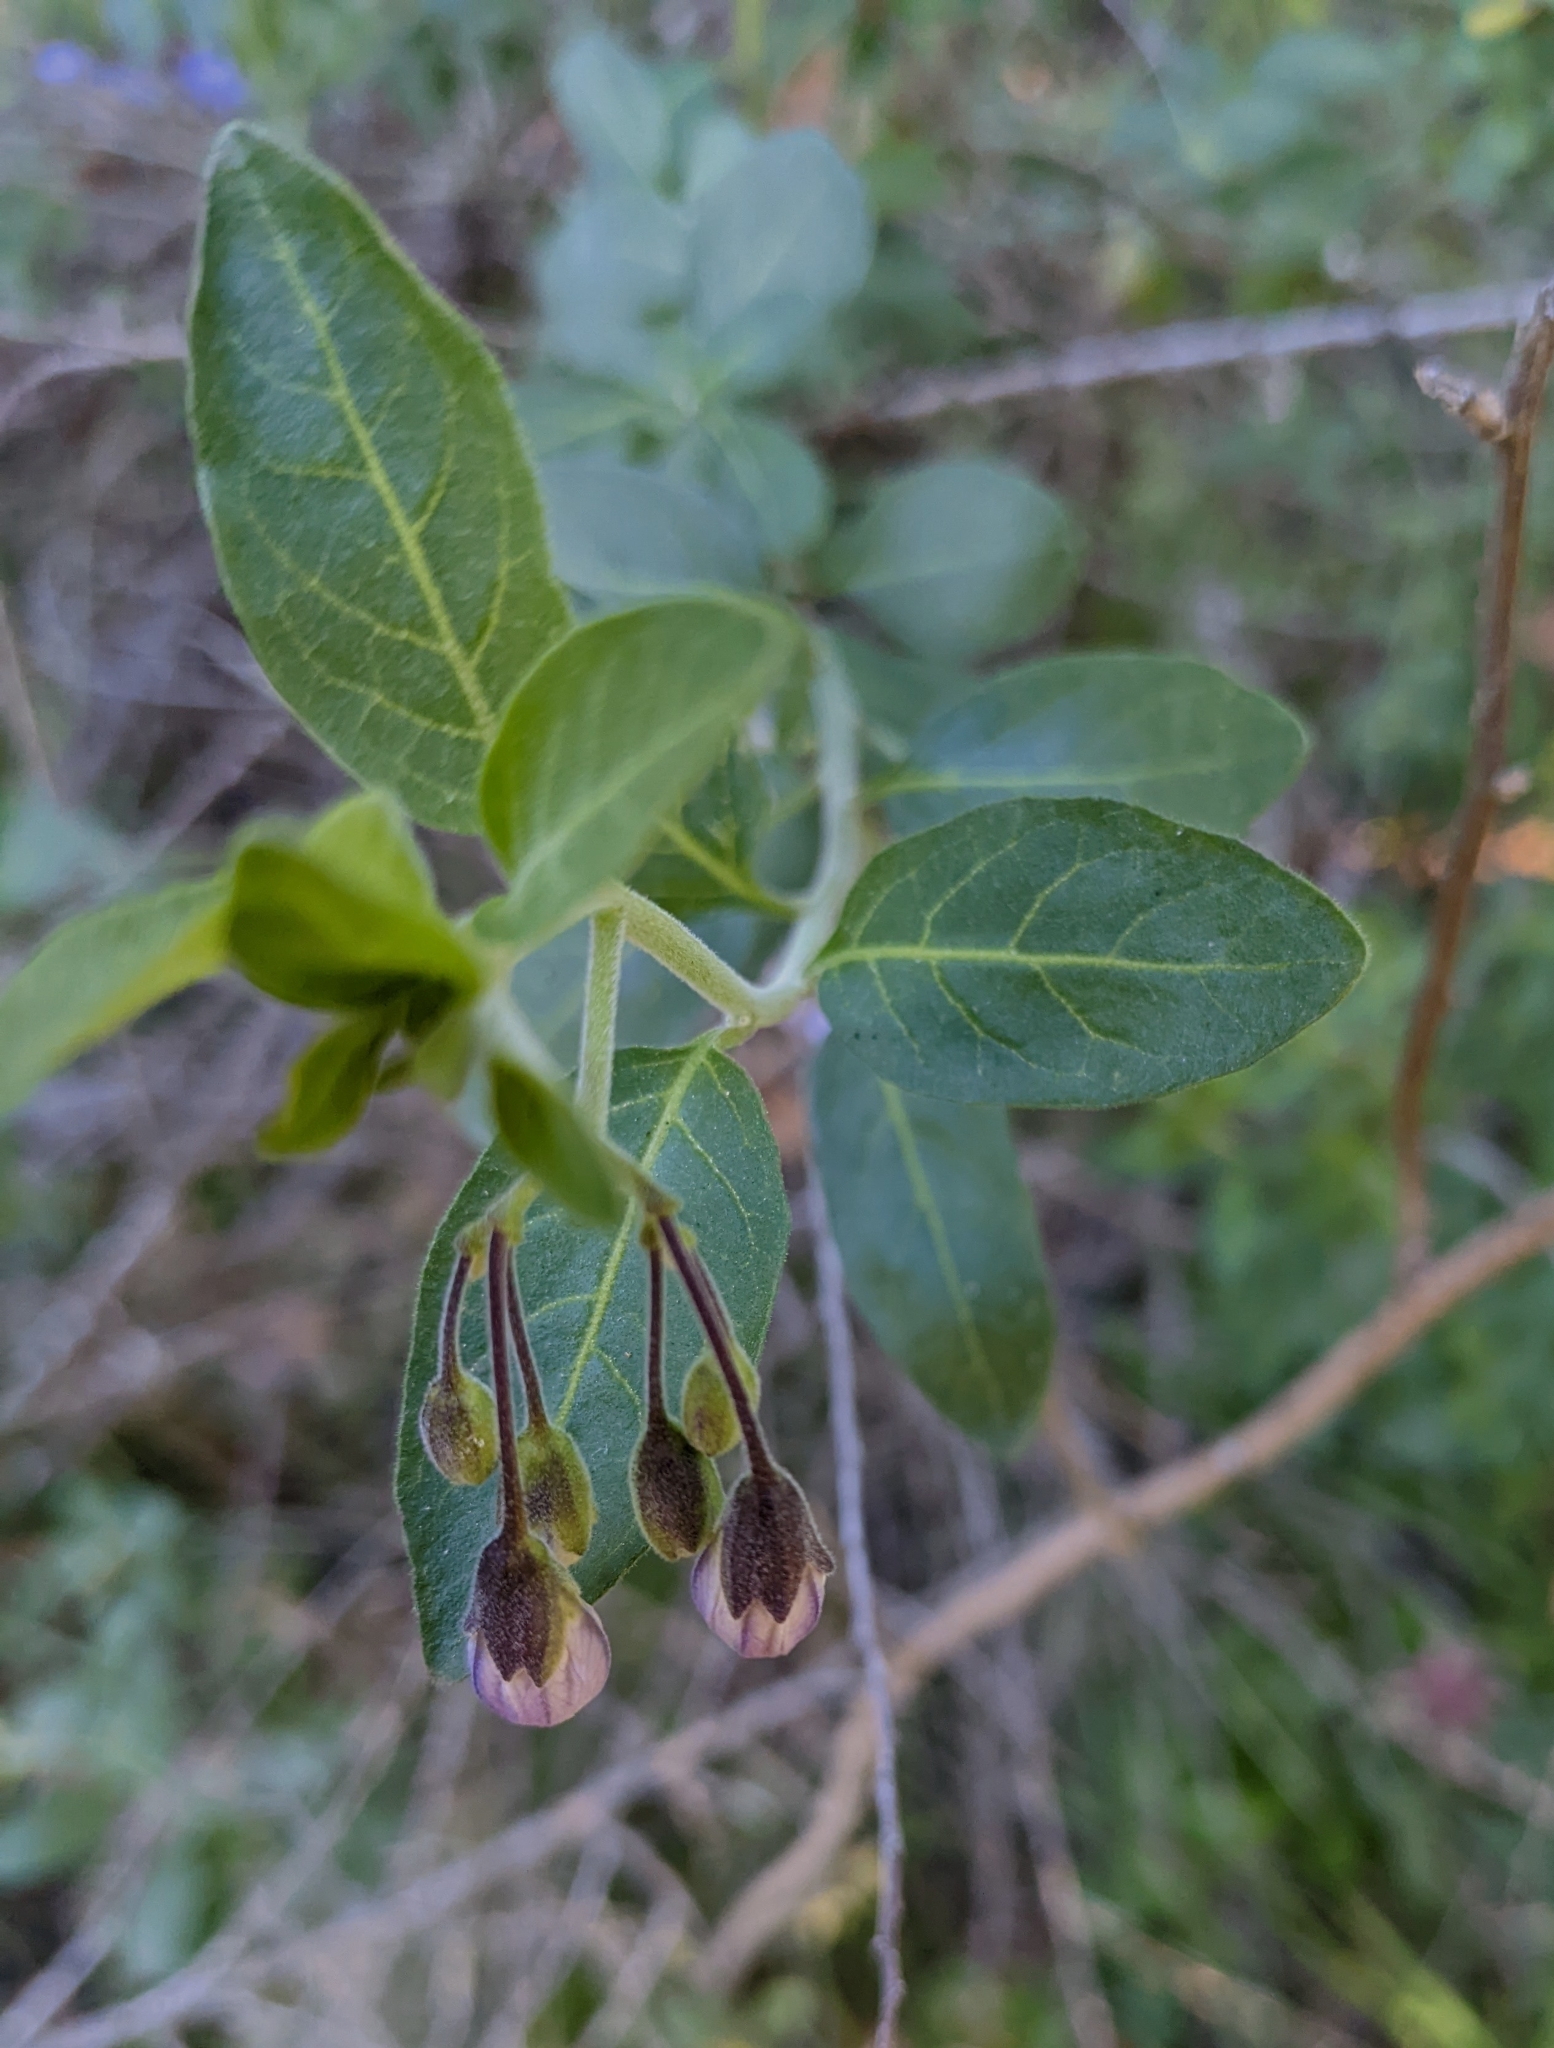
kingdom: Plantae
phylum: Tracheophyta
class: Magnoliopsida
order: Solanales
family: Solanaceae
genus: Solanum
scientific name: Solanum umbelliferum
